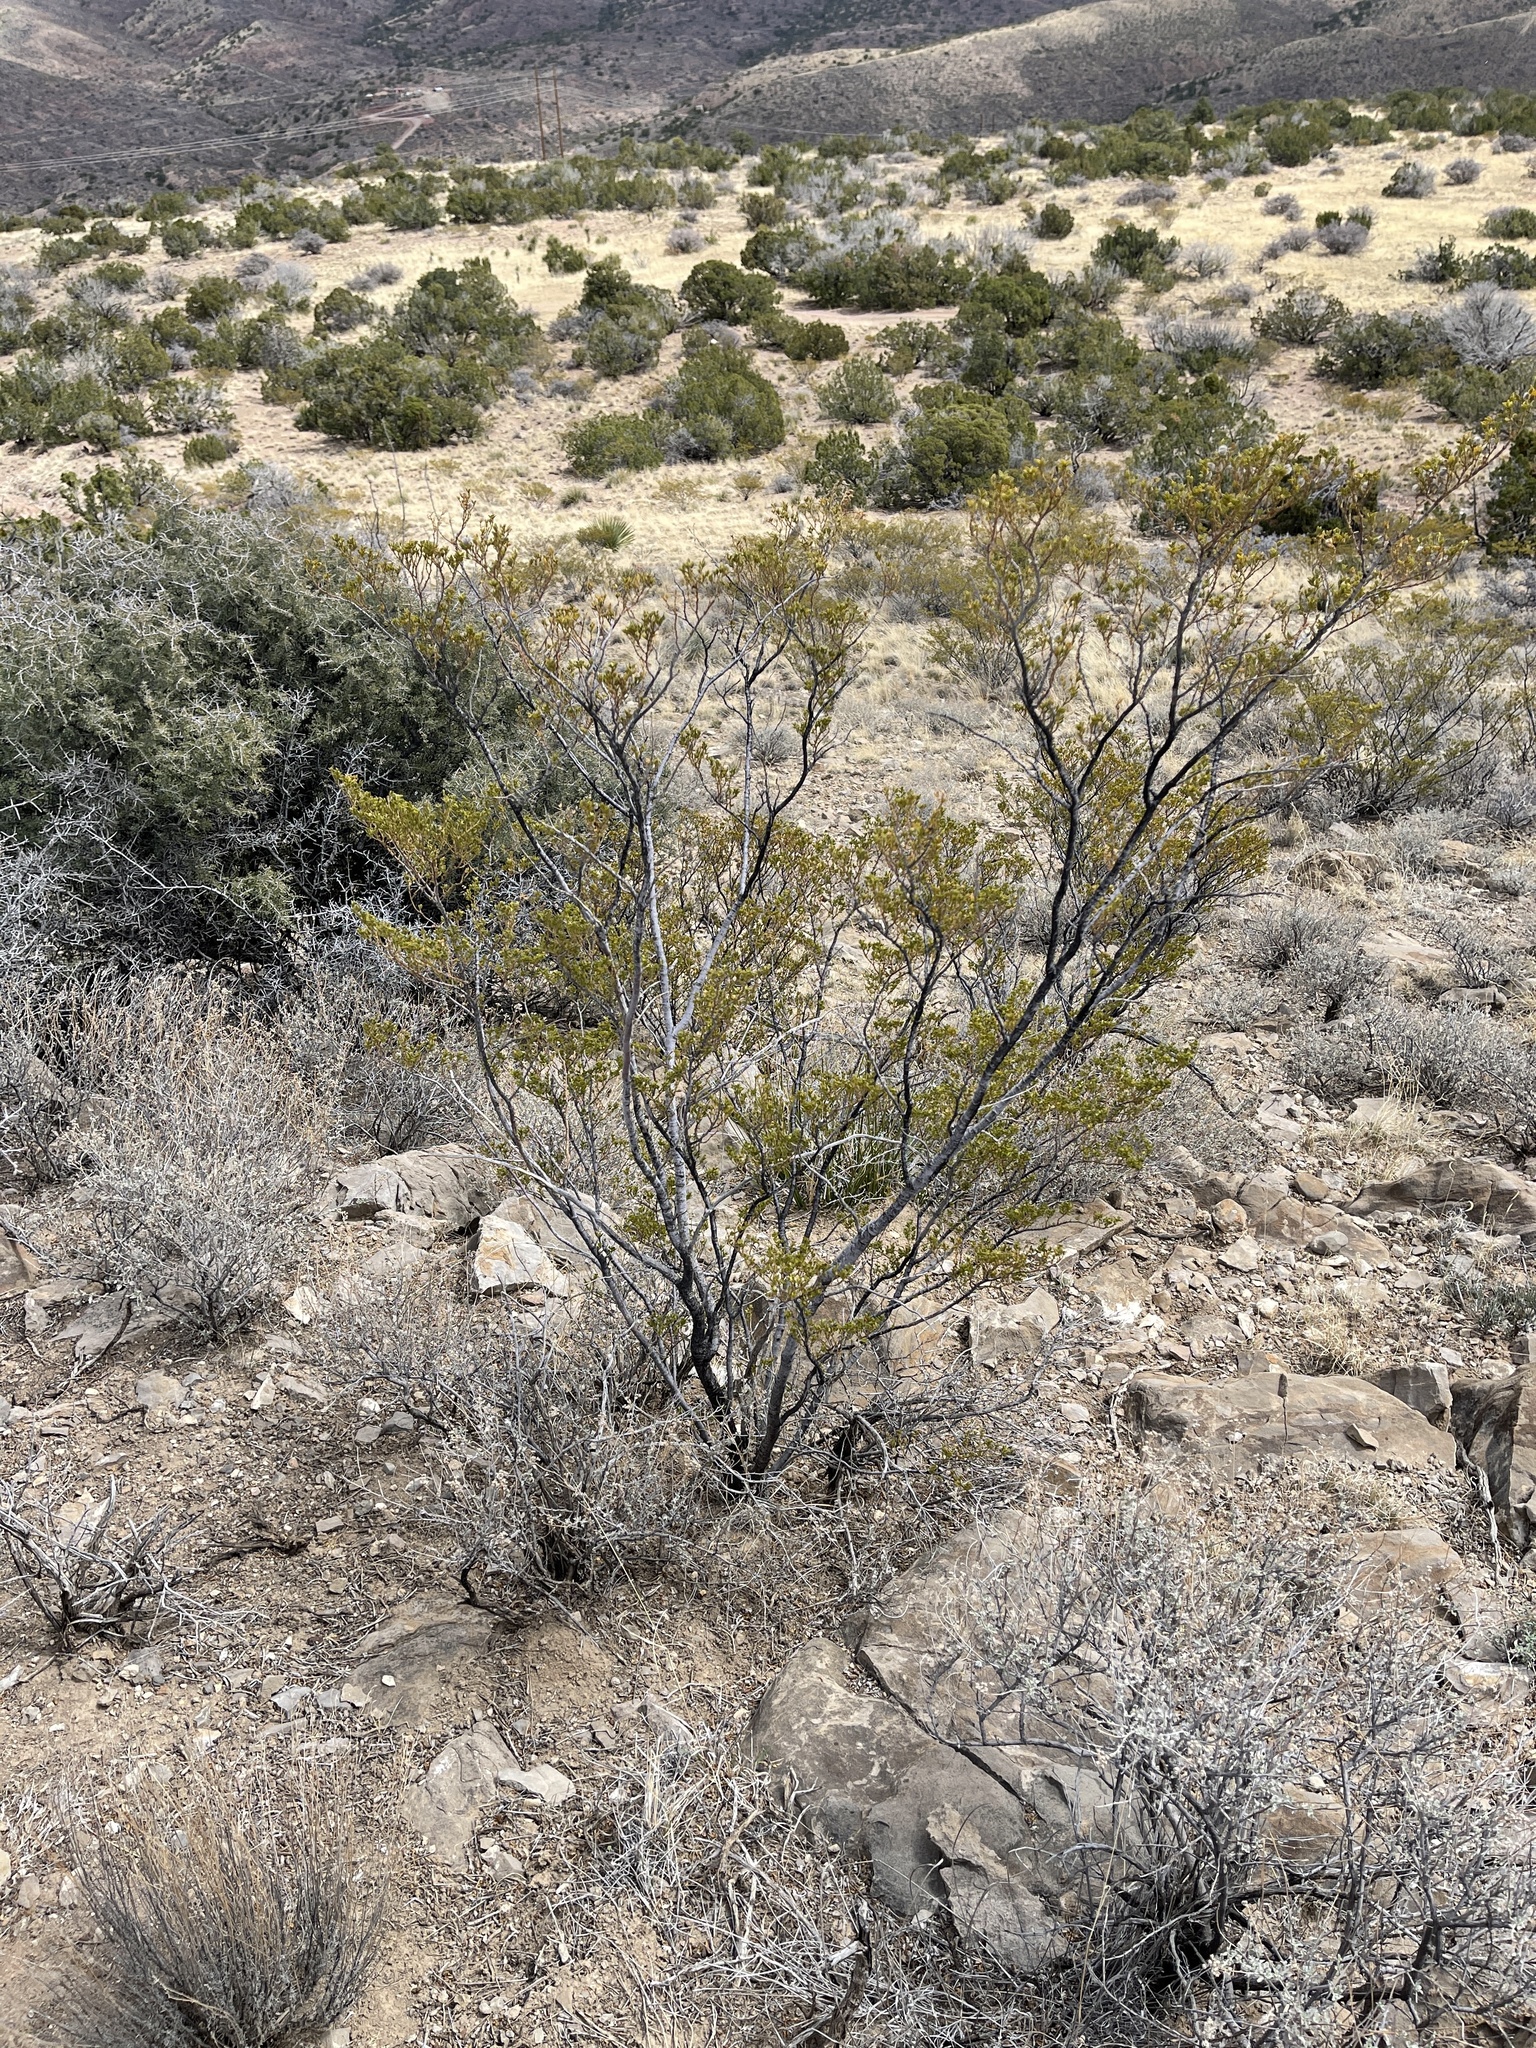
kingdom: Plantae
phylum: Tracheophyta
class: Magnoliopsida
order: Zygophyllales
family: Zygophyllaceae
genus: Larrea
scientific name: Larrea tridentata
